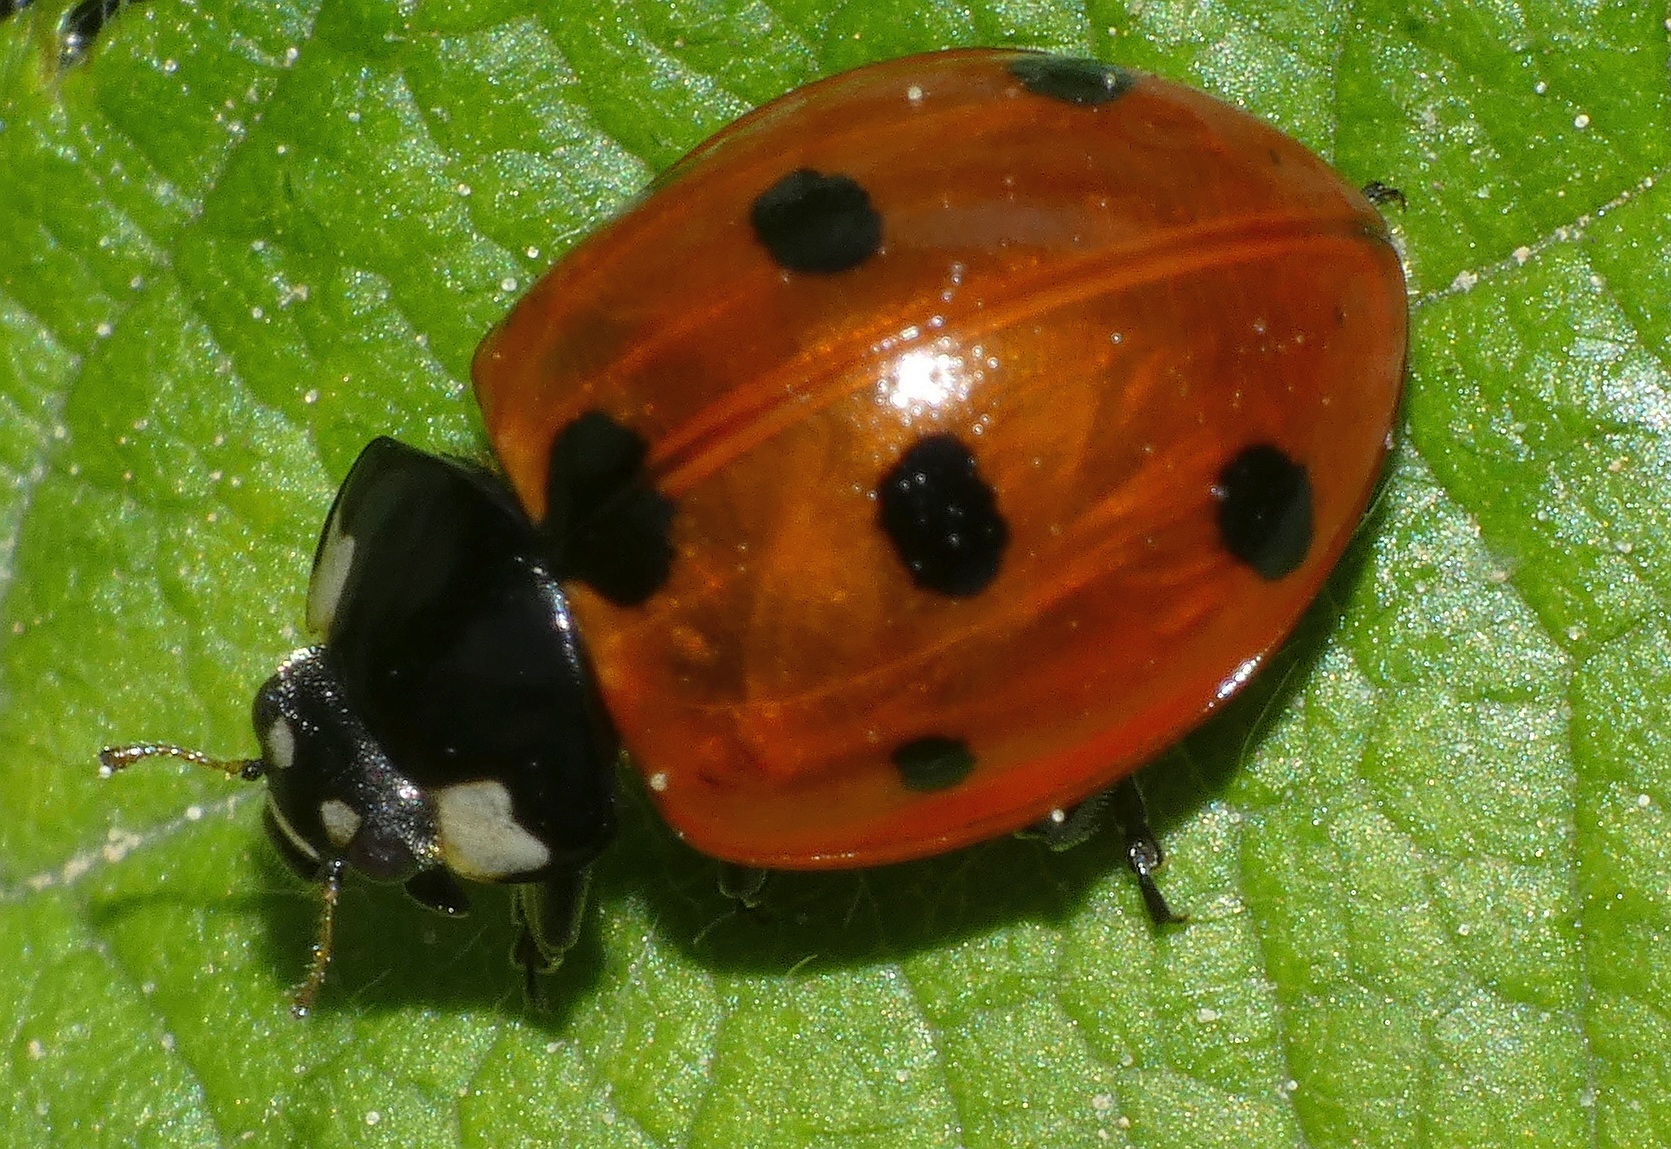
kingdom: Animalia
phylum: Arthropoda
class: Insecta
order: Coleoptera
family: Coccinellidae
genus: Coccinella
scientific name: Coccinella septempunctata
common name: Sevenspotted lady beetle
